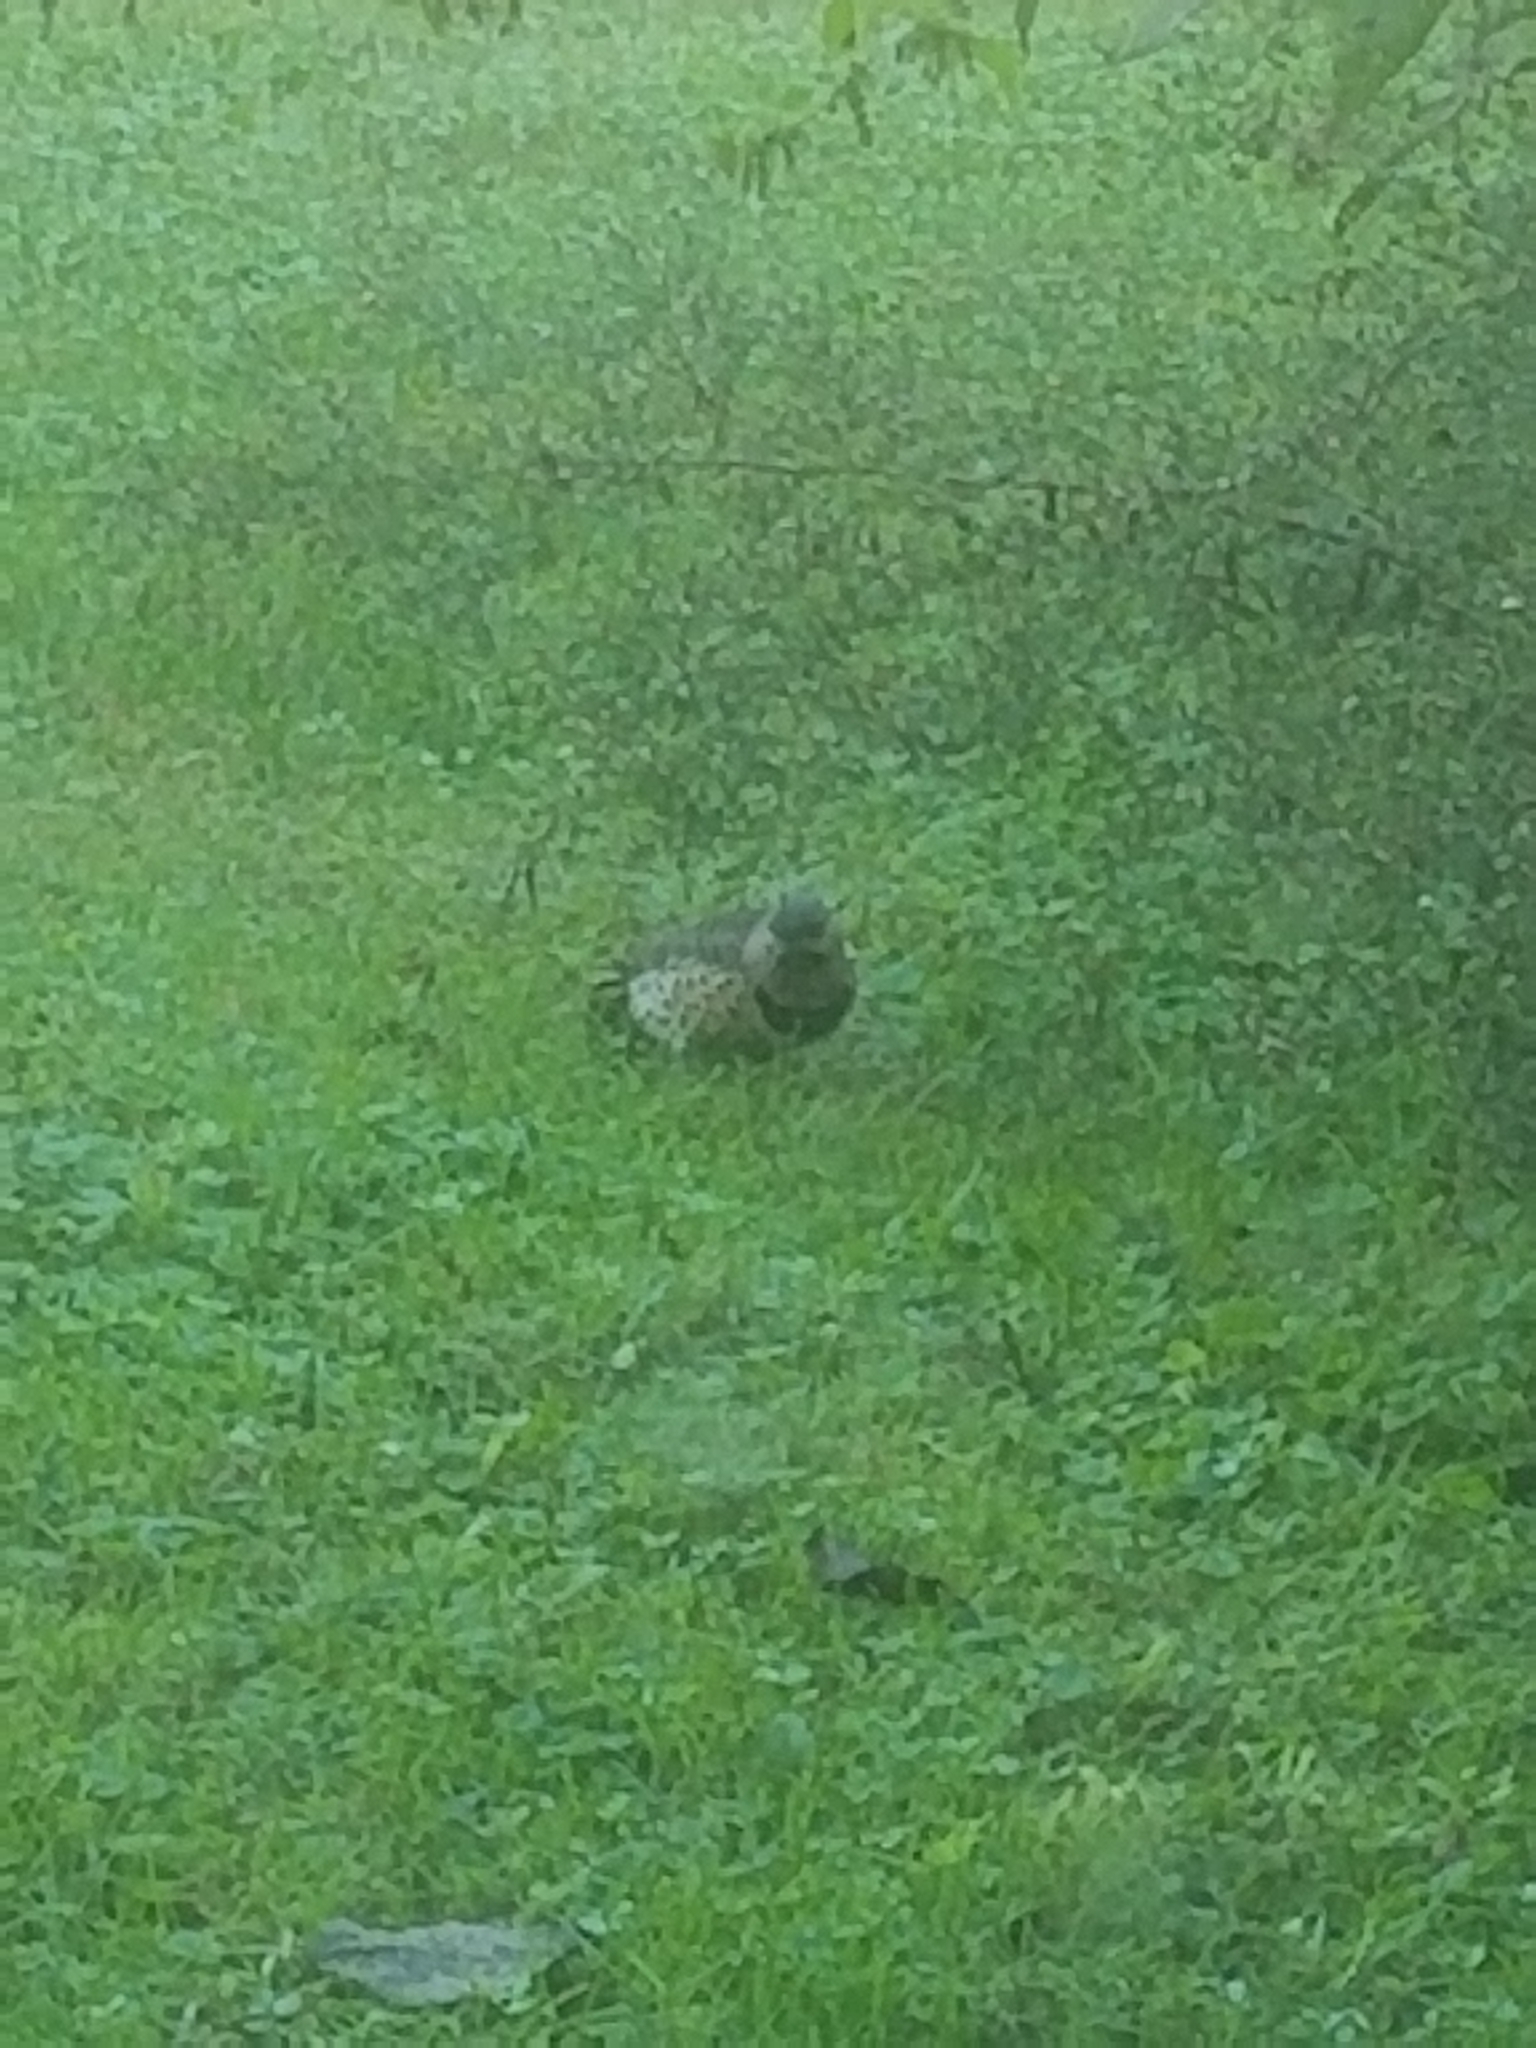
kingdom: Animalia
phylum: Chordata
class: Aves
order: Piciformes
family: Picidae
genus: Colaptes
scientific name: Colaptes auratus
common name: Northern flicker
